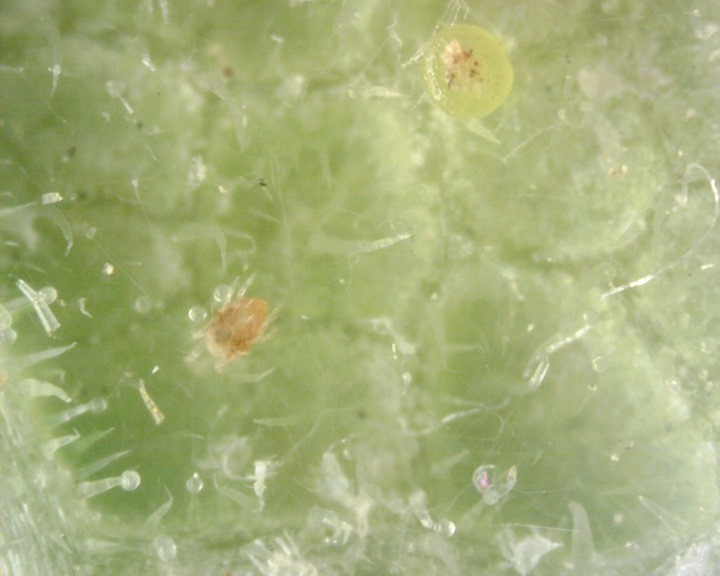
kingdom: Animalia
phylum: Arthropoda
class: Arachnida
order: Trombidiformes
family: Tetranychidae
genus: Tetranychus
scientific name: Tetranychus urticae
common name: Carmine spider mite
